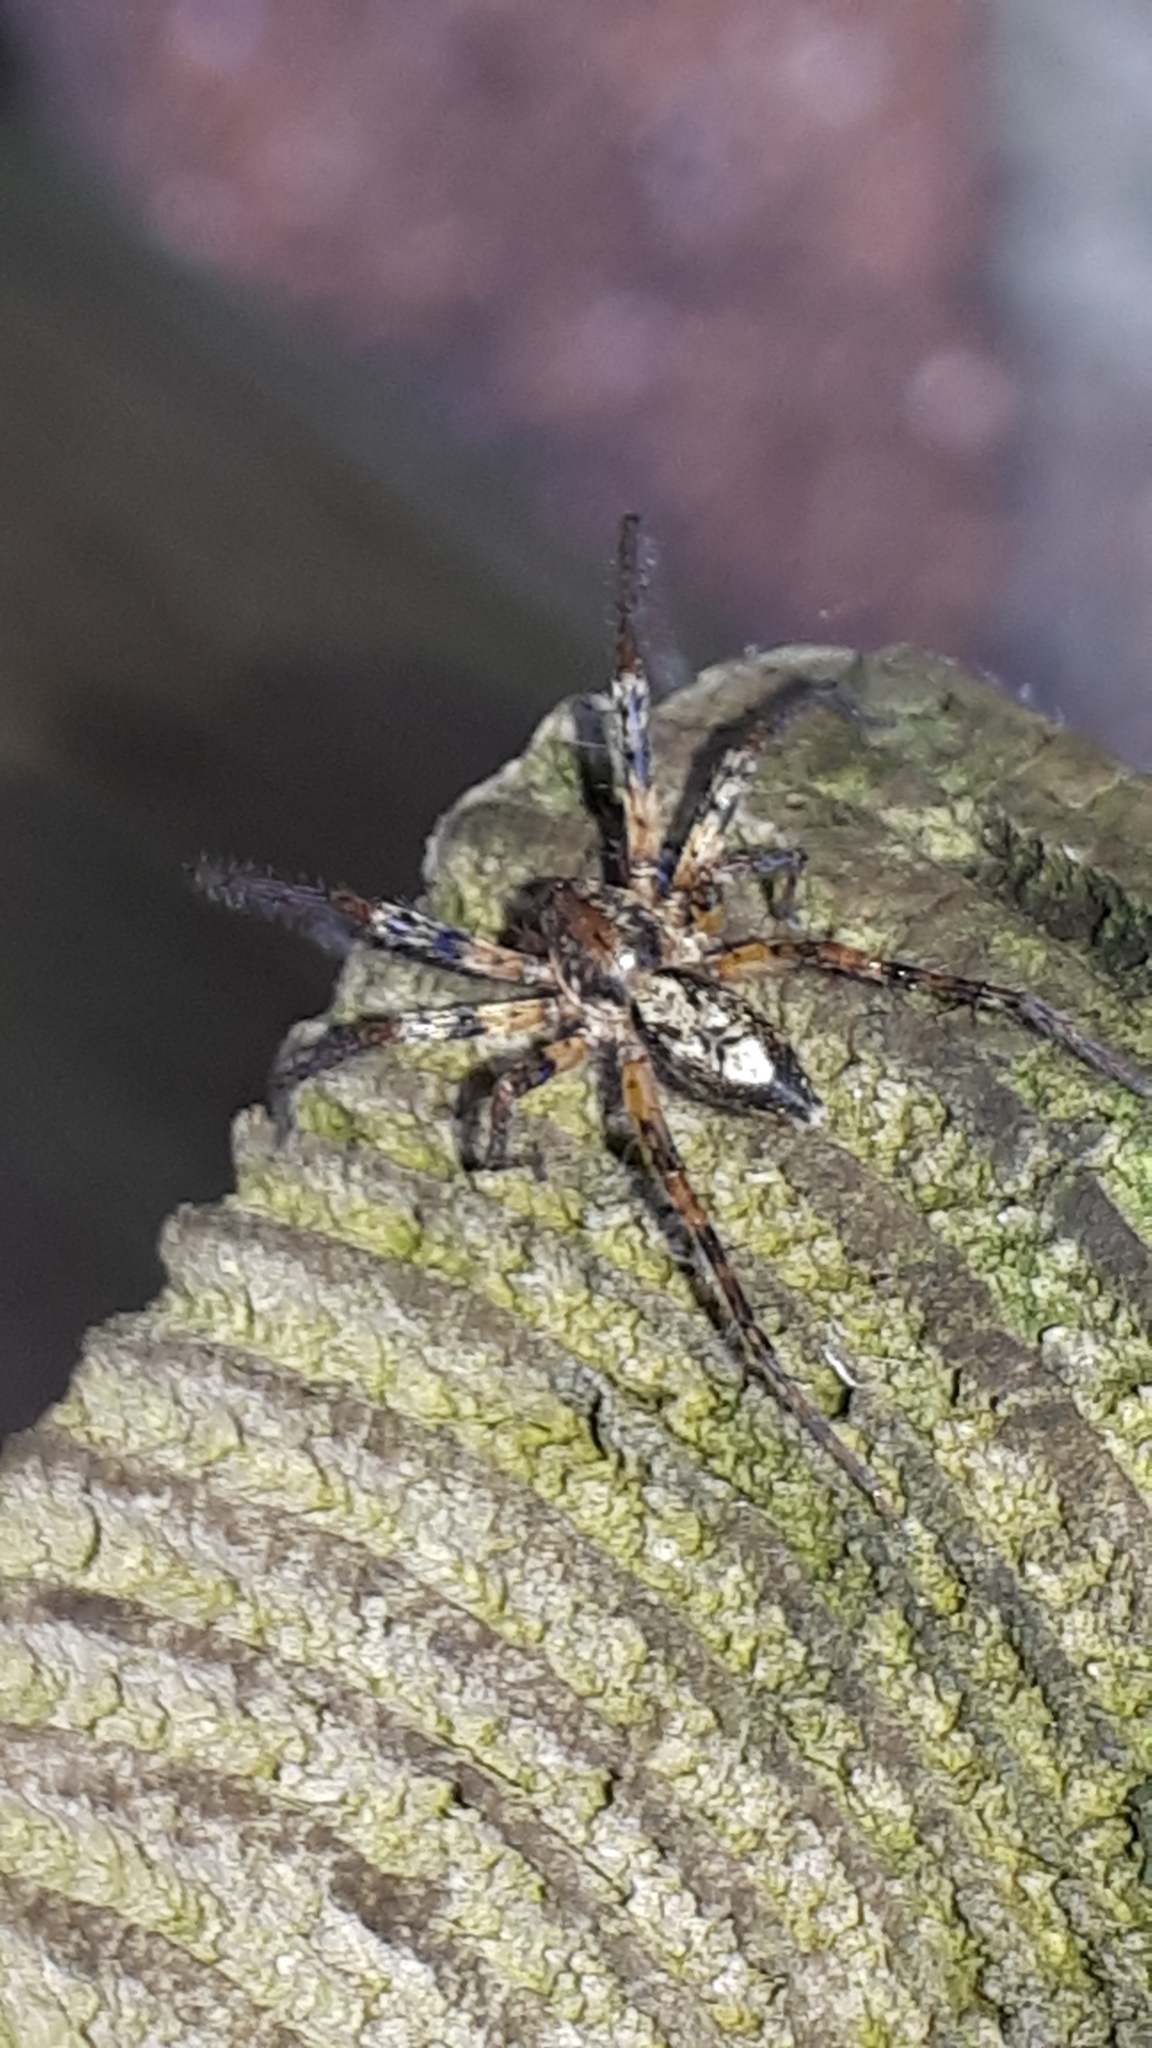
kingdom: Animalia
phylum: Arthropoda
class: Arachnida
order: Araneae
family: Anyphaenidae
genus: Anyphaena
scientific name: Anyphaena accentuata
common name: Buzzing spider
